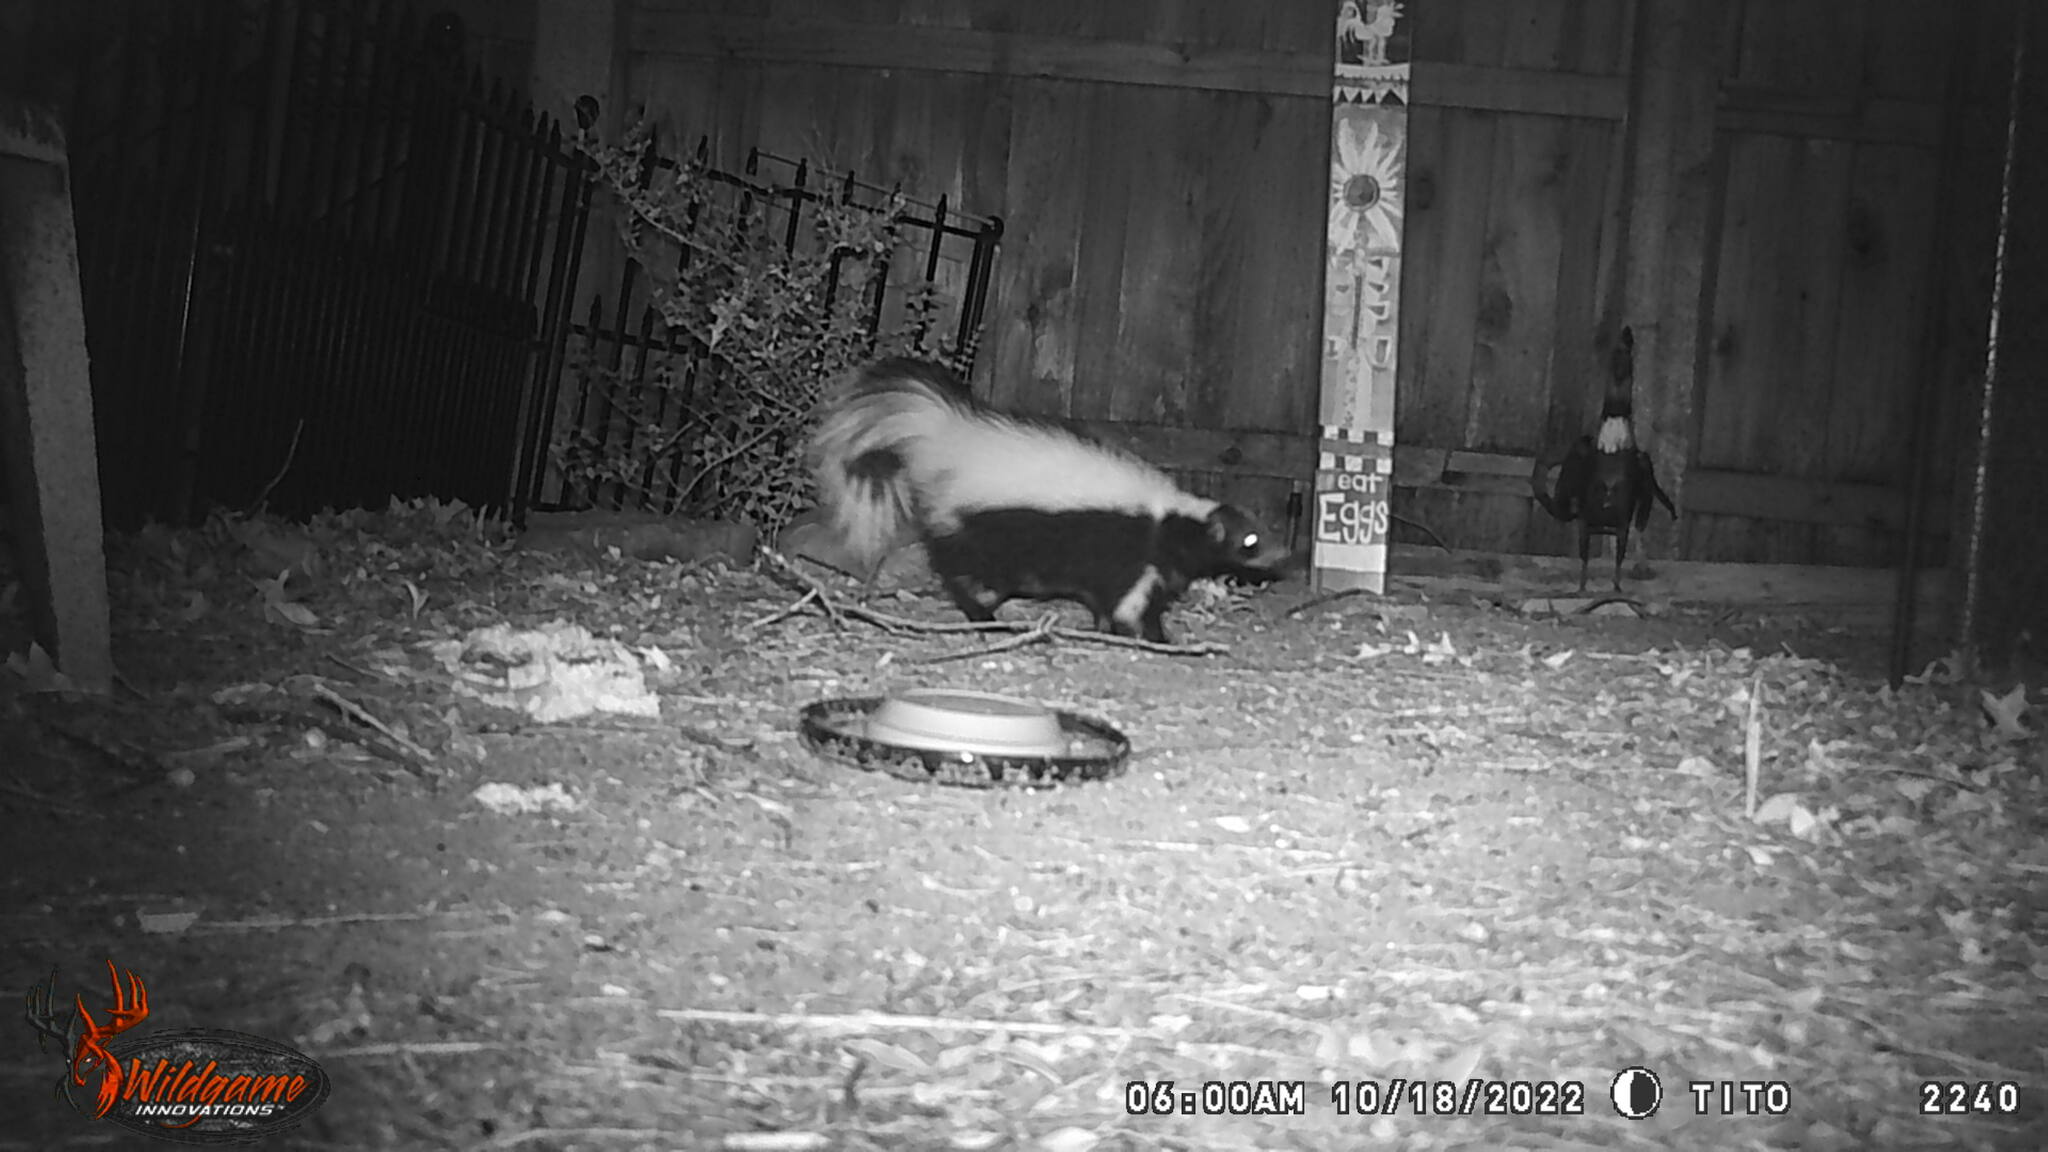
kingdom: Animalia
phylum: Chordata
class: Mammalia
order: Carnivora
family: Mephitidae
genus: Mephitis
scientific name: Mephitis mephitis
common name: Striped skunk
